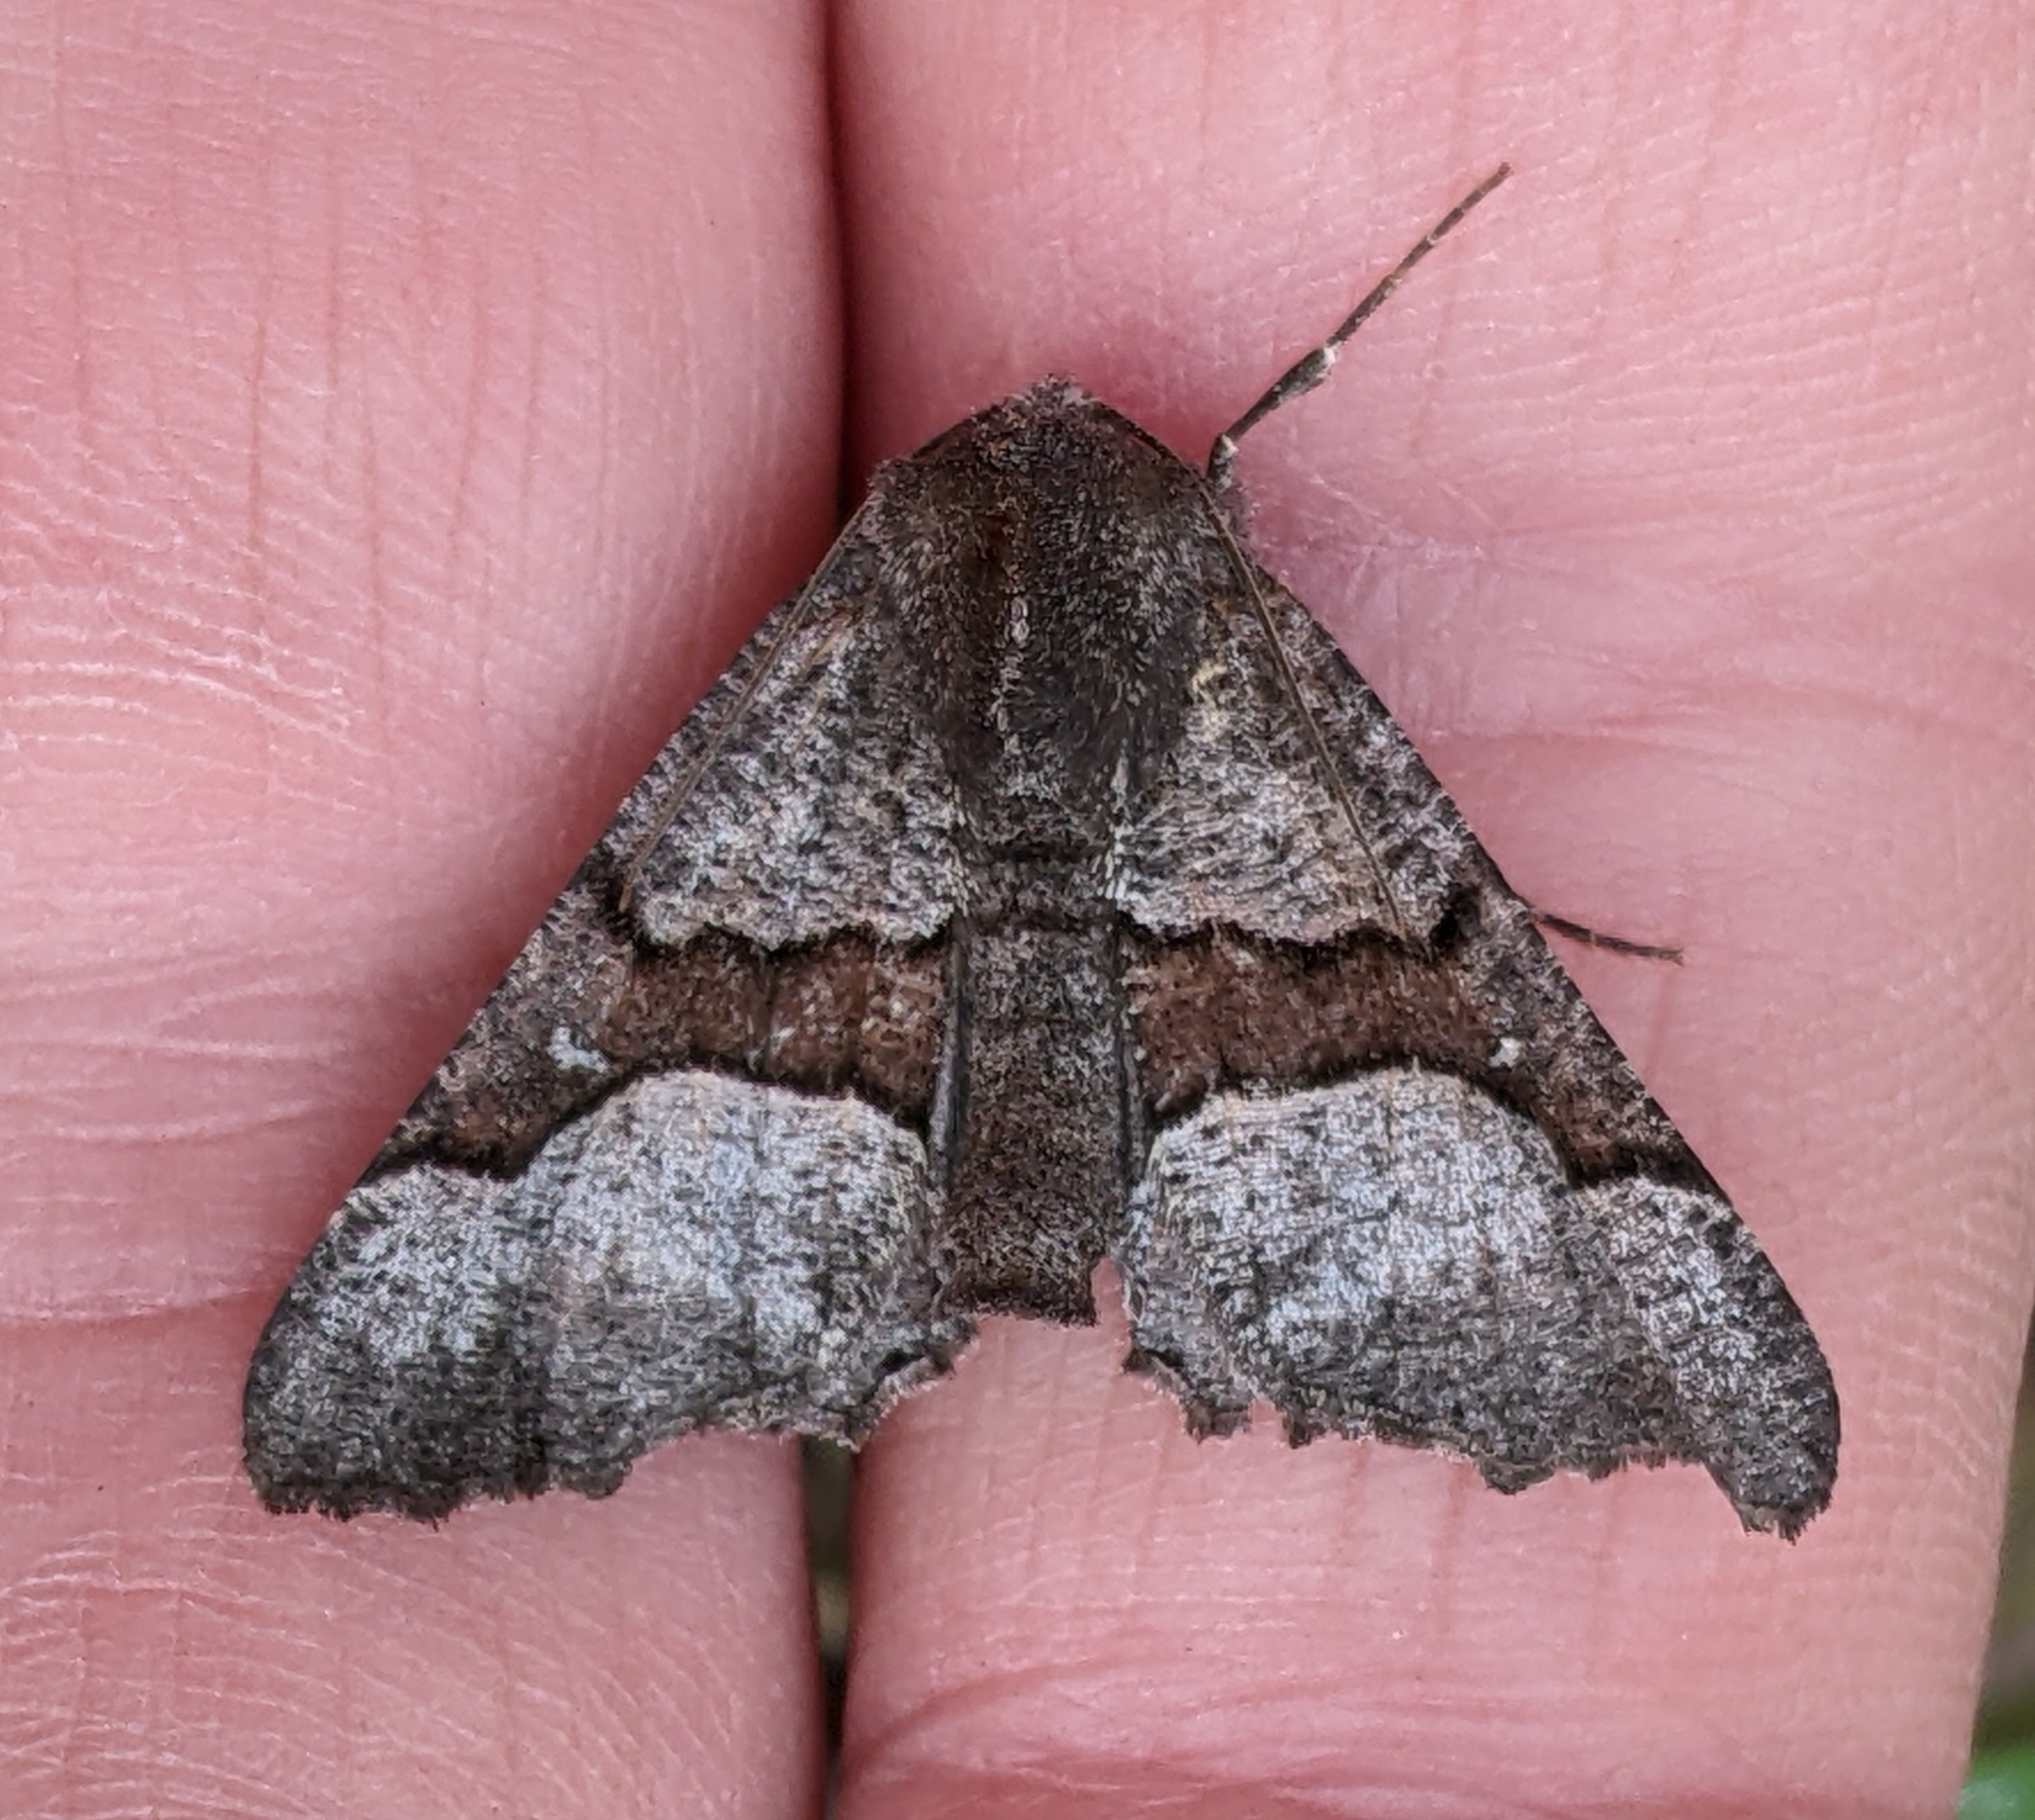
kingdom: Animalia
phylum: Arthropoda
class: Insecta
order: Lepidoptera
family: Geometridae
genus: Pero
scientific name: Pero behrensaria
